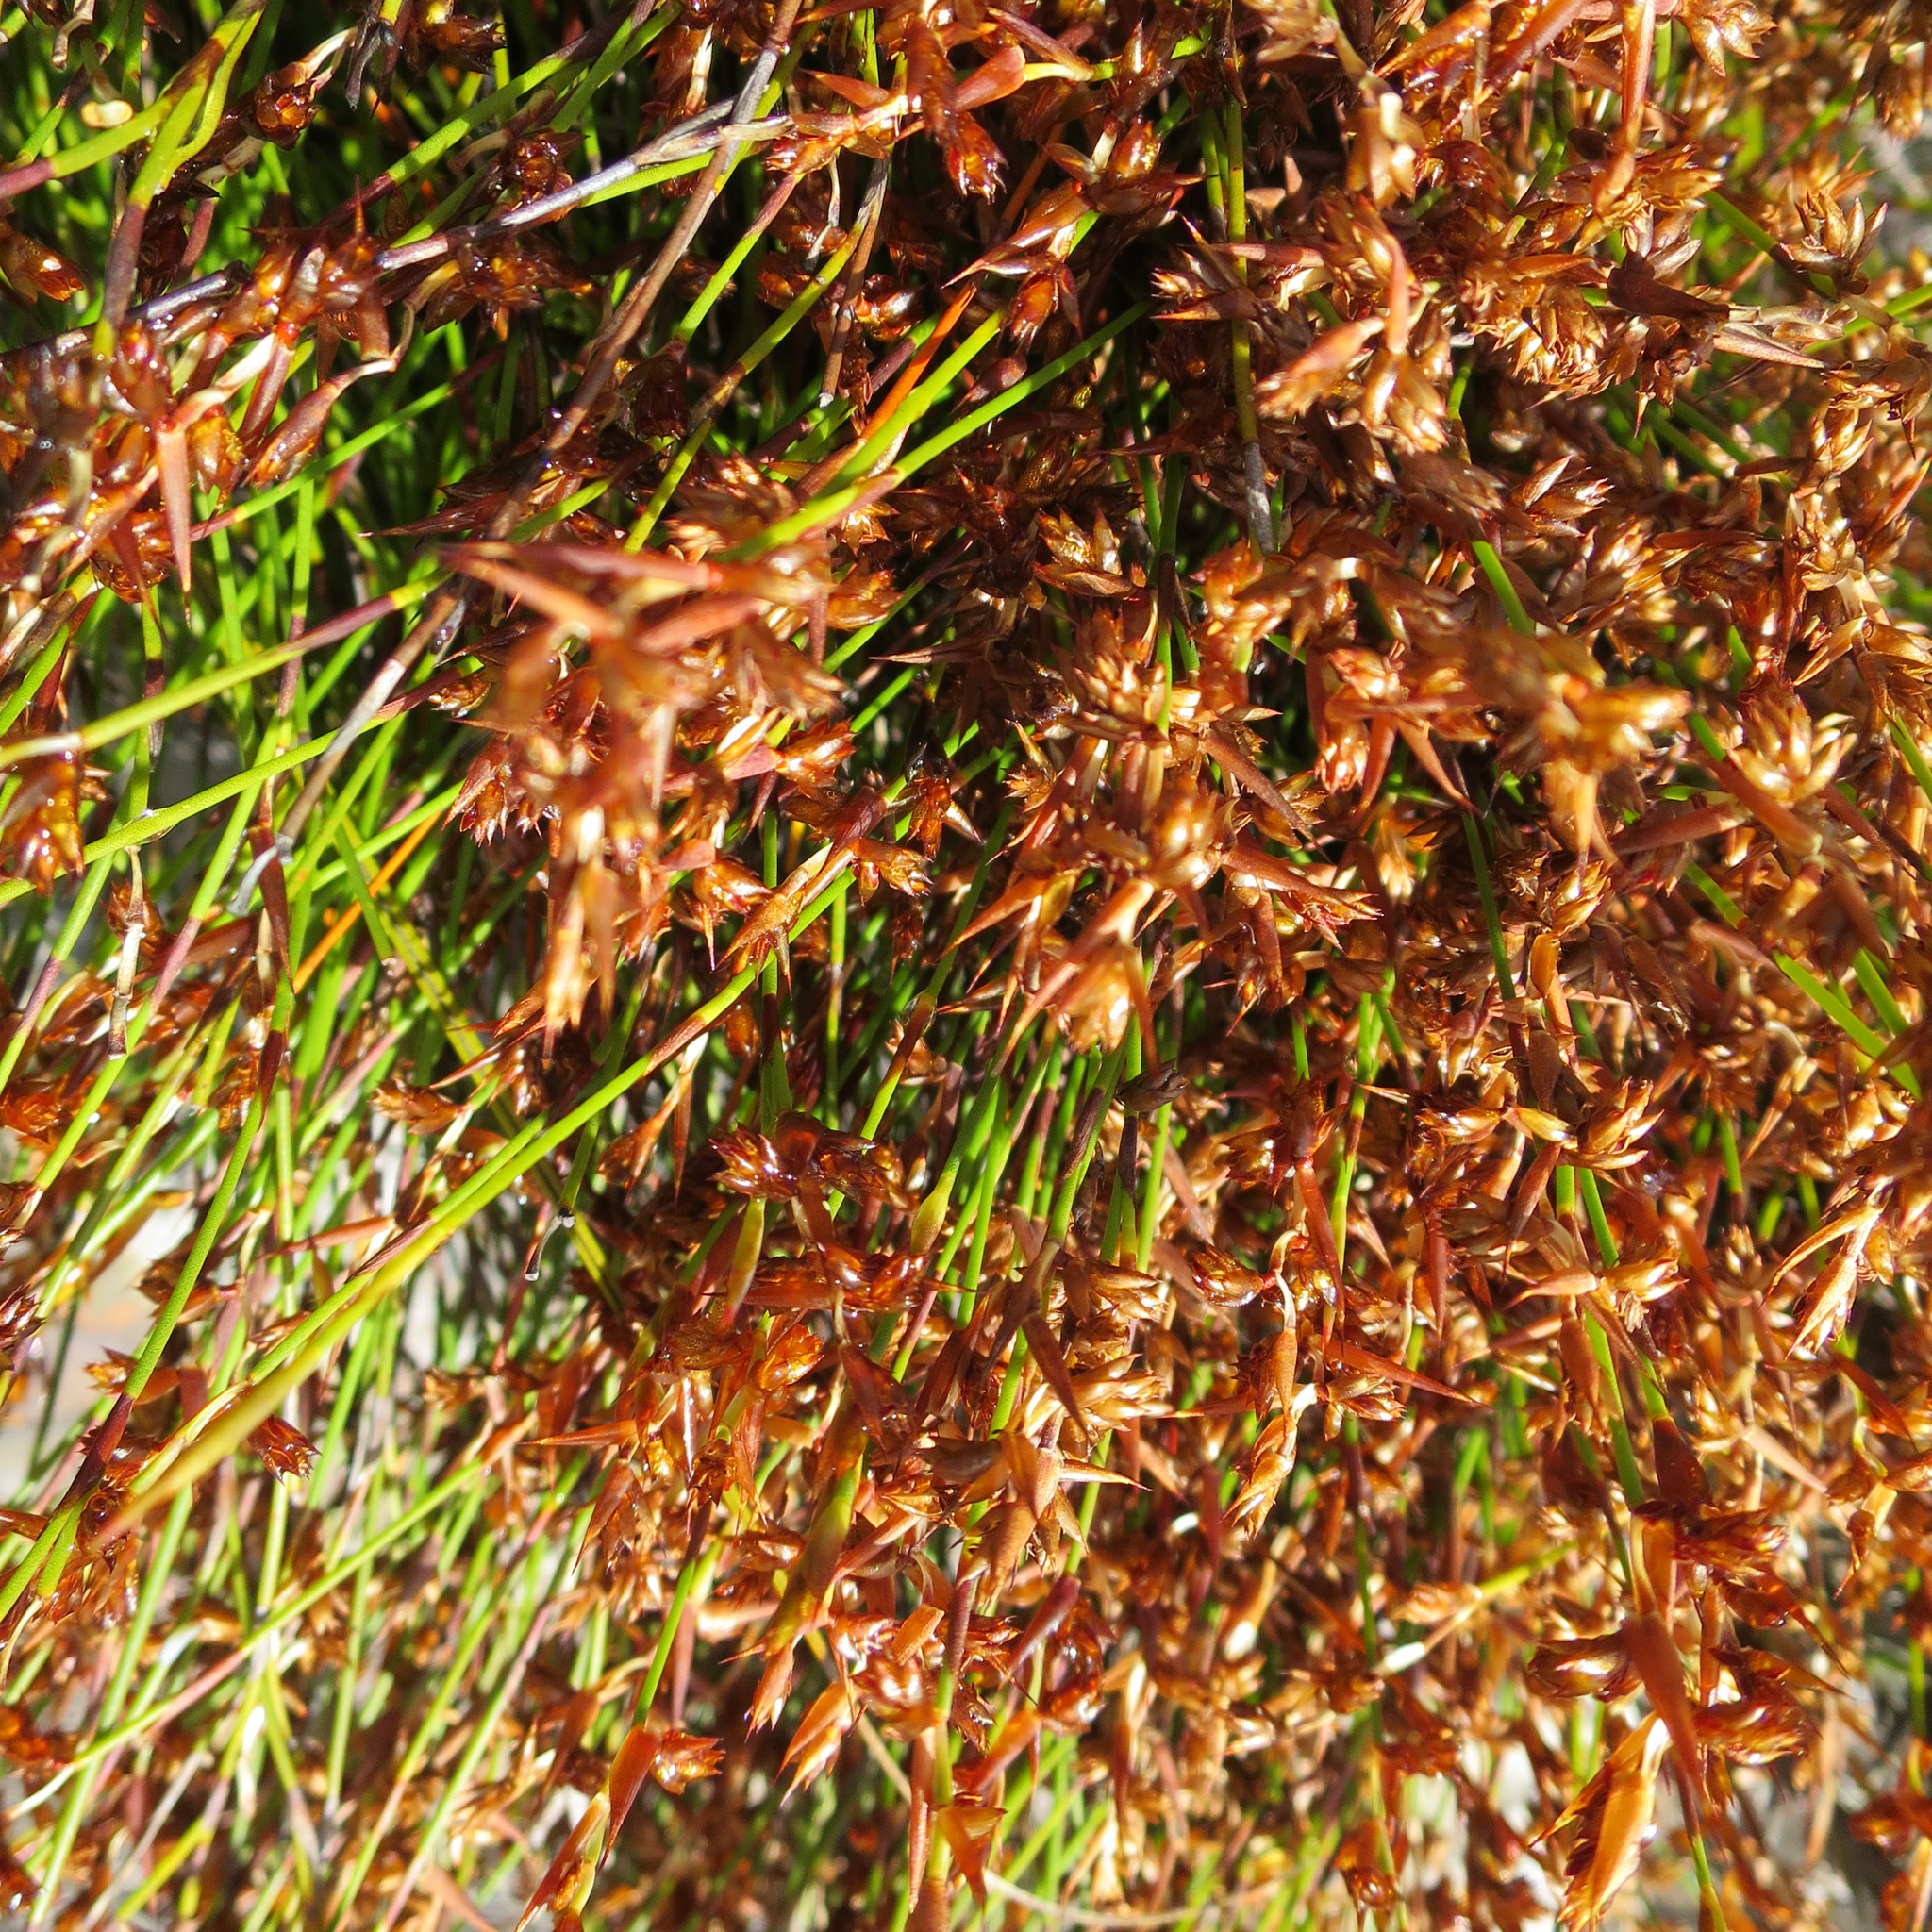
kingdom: Plantae
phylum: Tracheophyta
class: Liliopsida
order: Poales
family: Restionaceae
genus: Mastersiella
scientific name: Mastersiella purpurea
